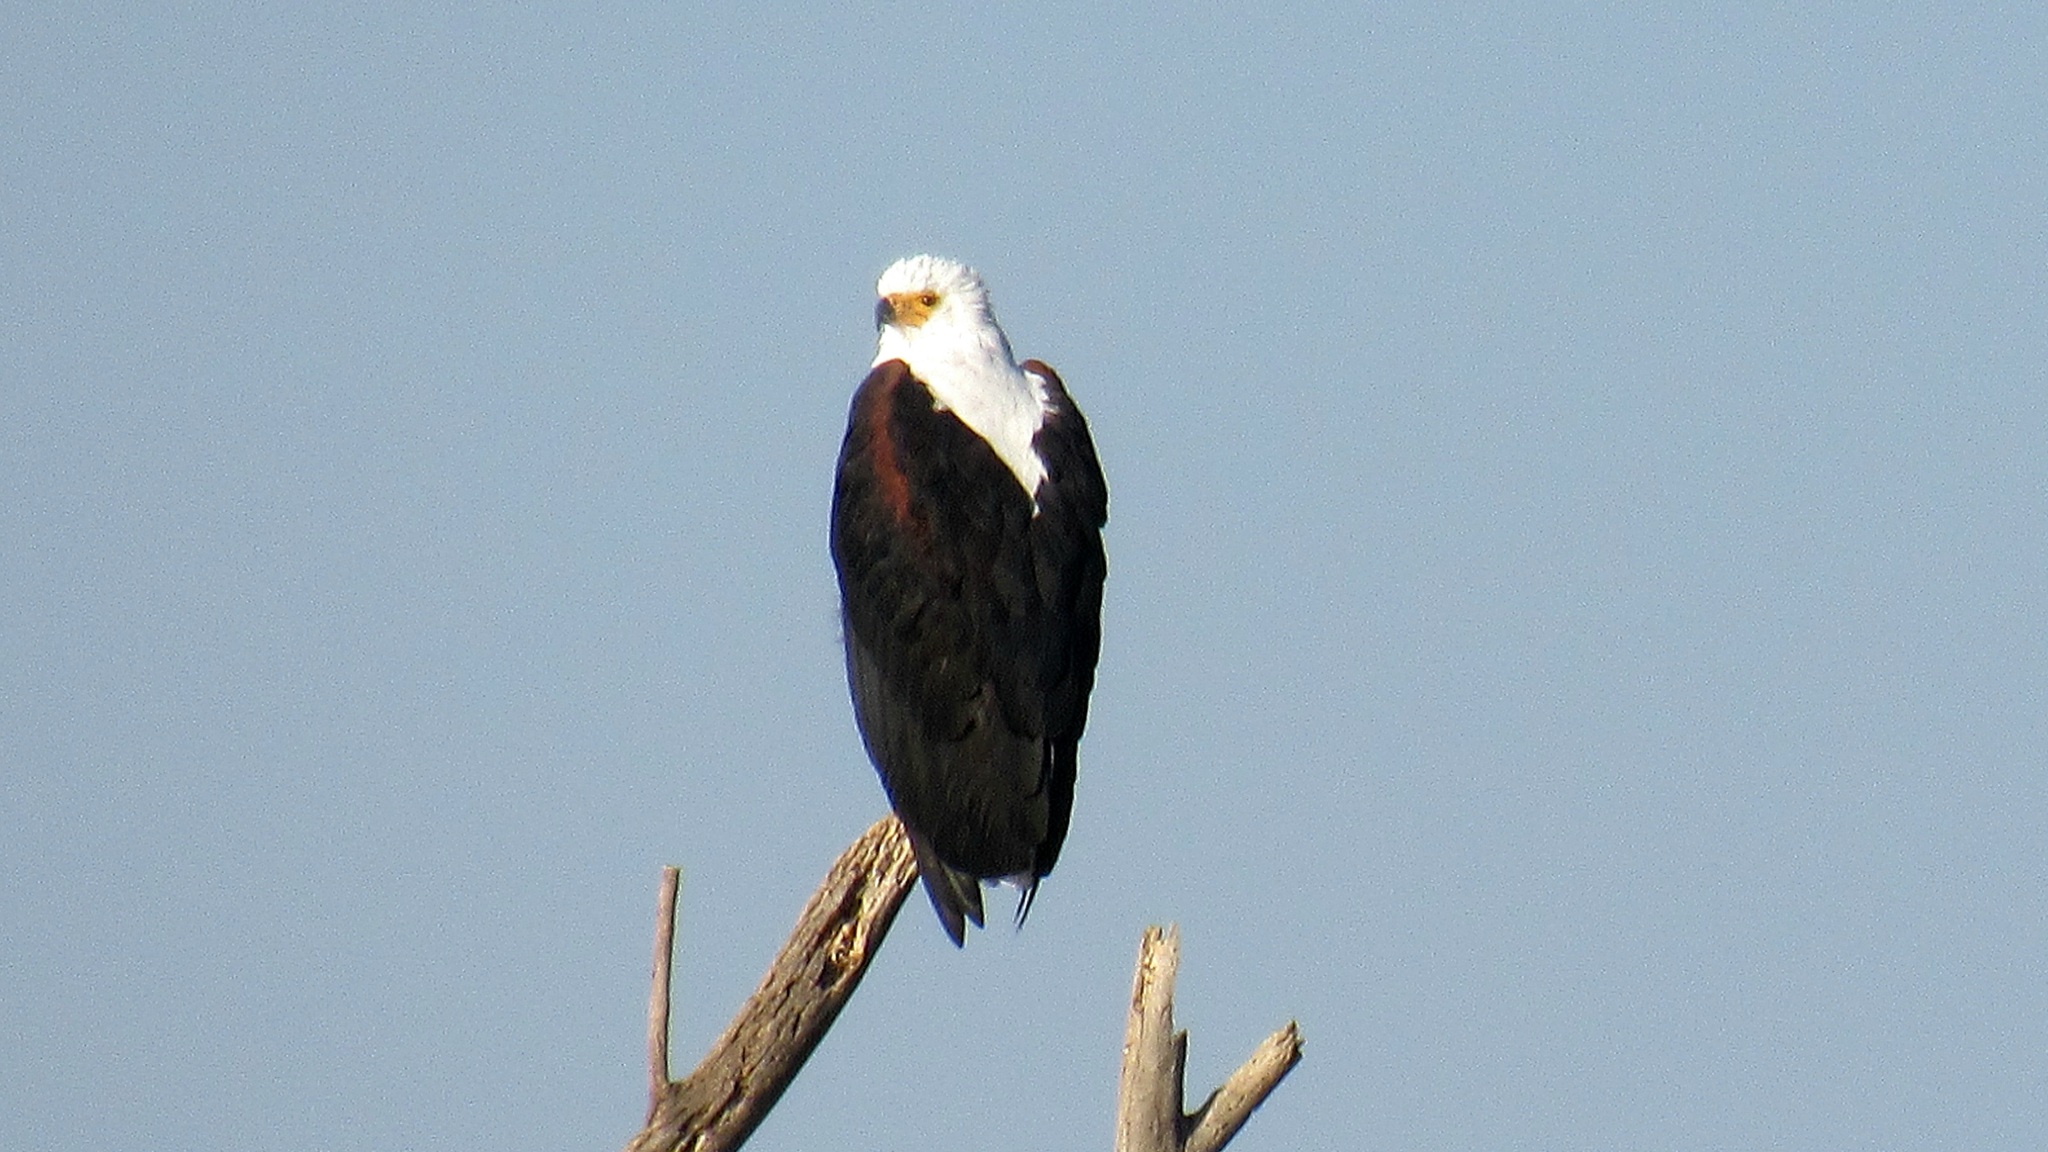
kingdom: Animalia
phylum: Chordata
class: Aves
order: Accipitriformes
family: Accipitridae
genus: Haliaeetus
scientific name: Haliaeetus vocifer
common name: African fish eagle
